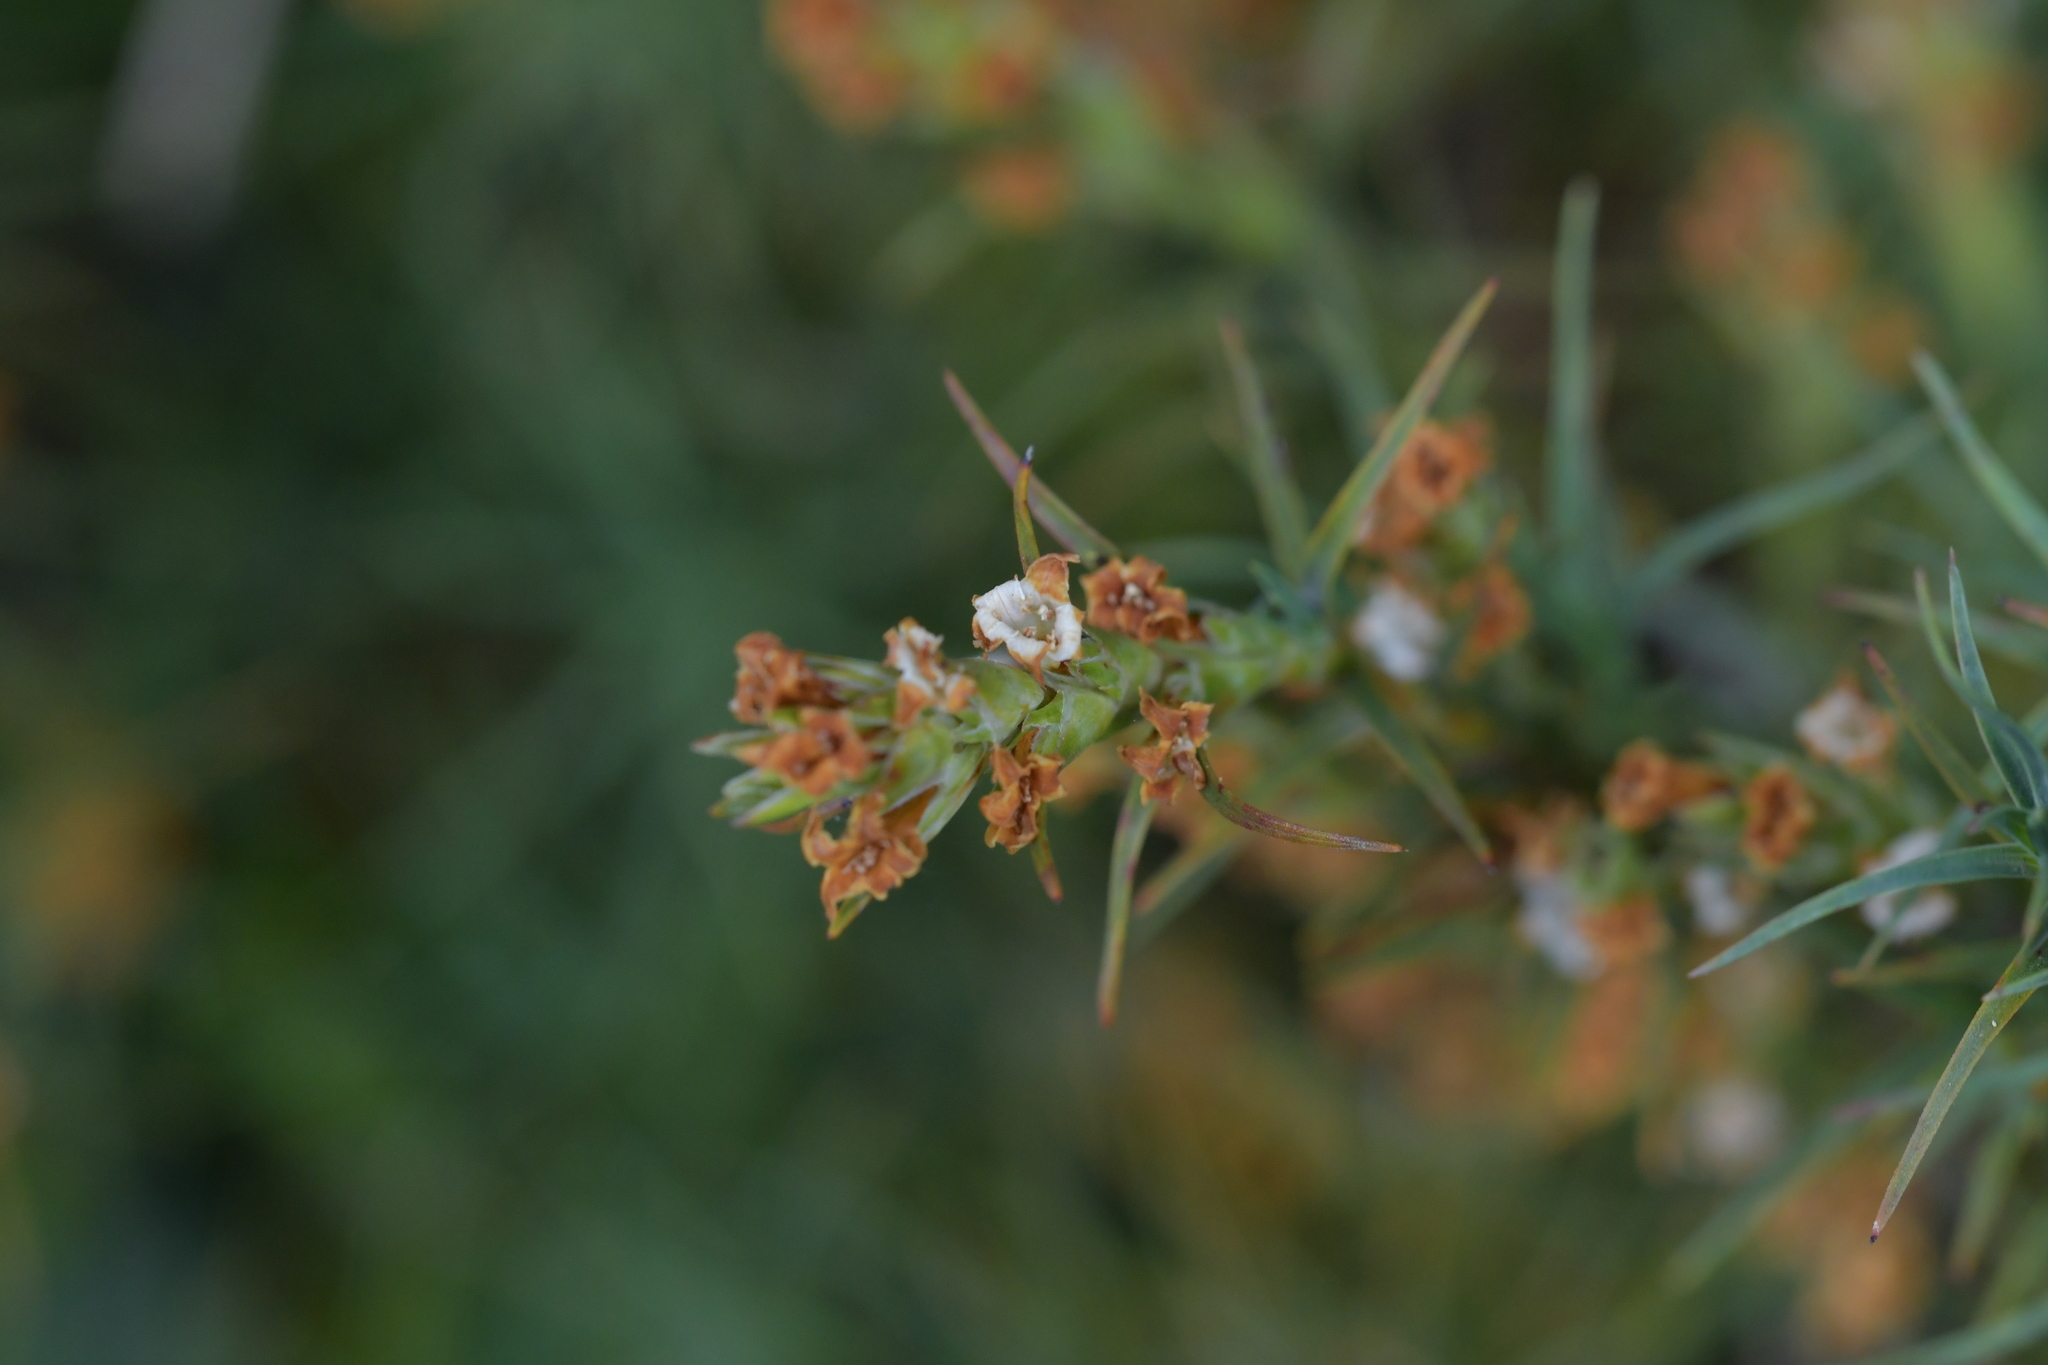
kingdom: Plantae
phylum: Tracheophyta
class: Magnoliopsida
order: Ericales
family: Ericaceae
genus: Dracophyllum
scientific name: Dracophyllum
